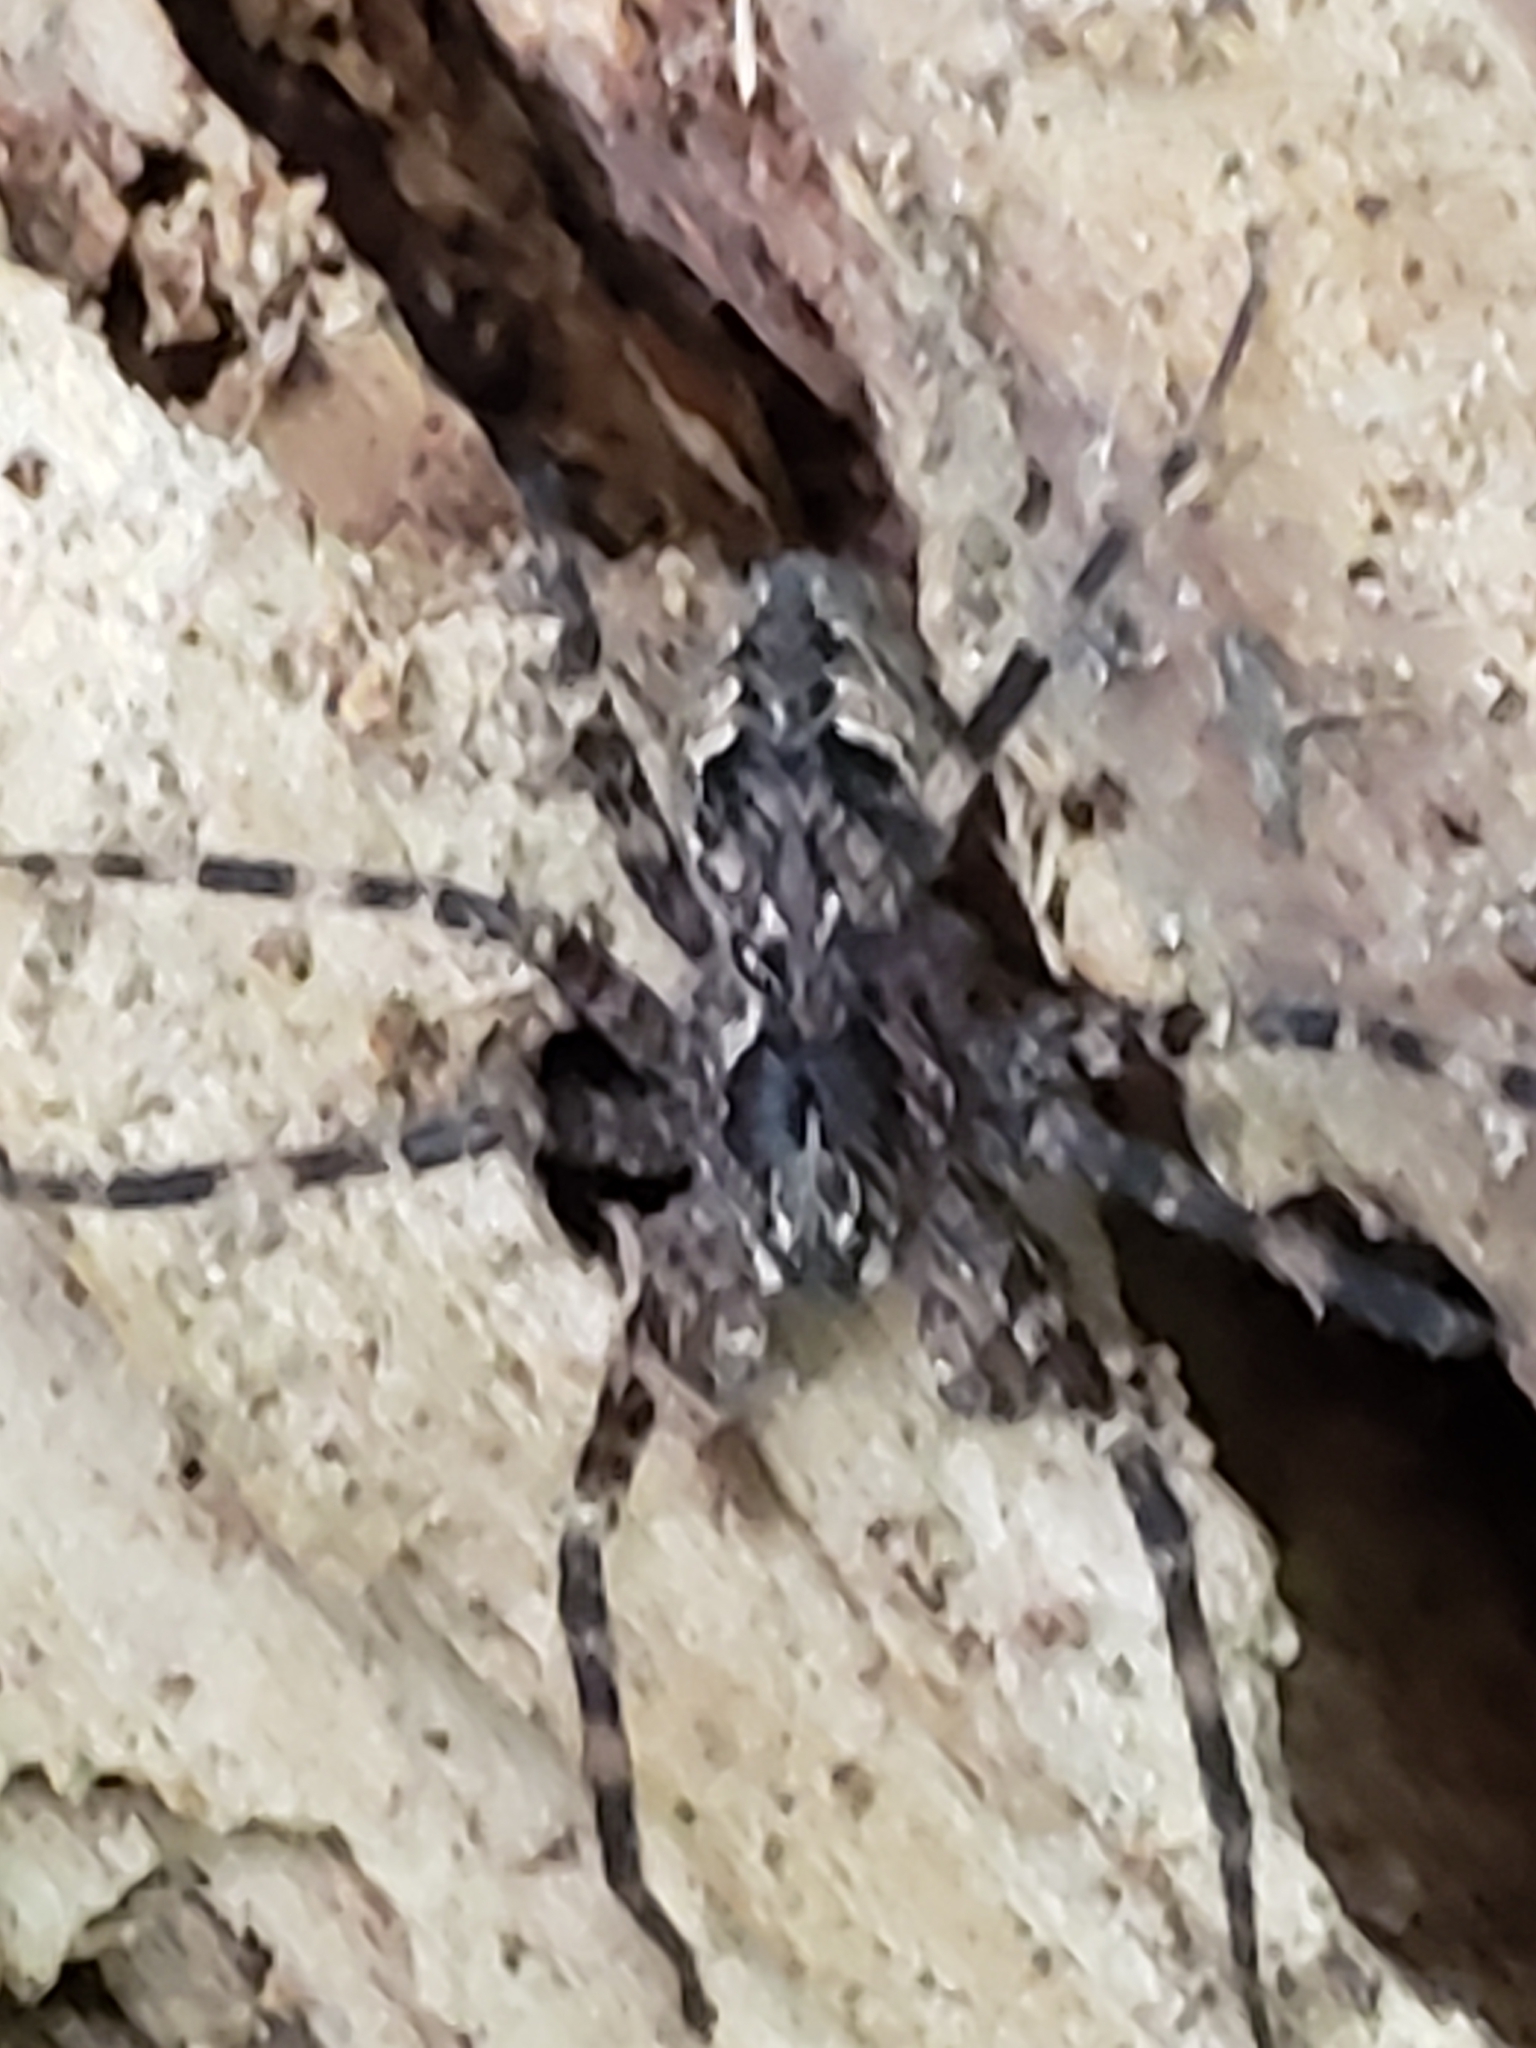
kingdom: Animalia
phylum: Arthropoda
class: Arachnida
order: Araneae
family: Pisauridae
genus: Dolomedes
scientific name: Dolomedes tenebrosus
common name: Dark fishing spider
